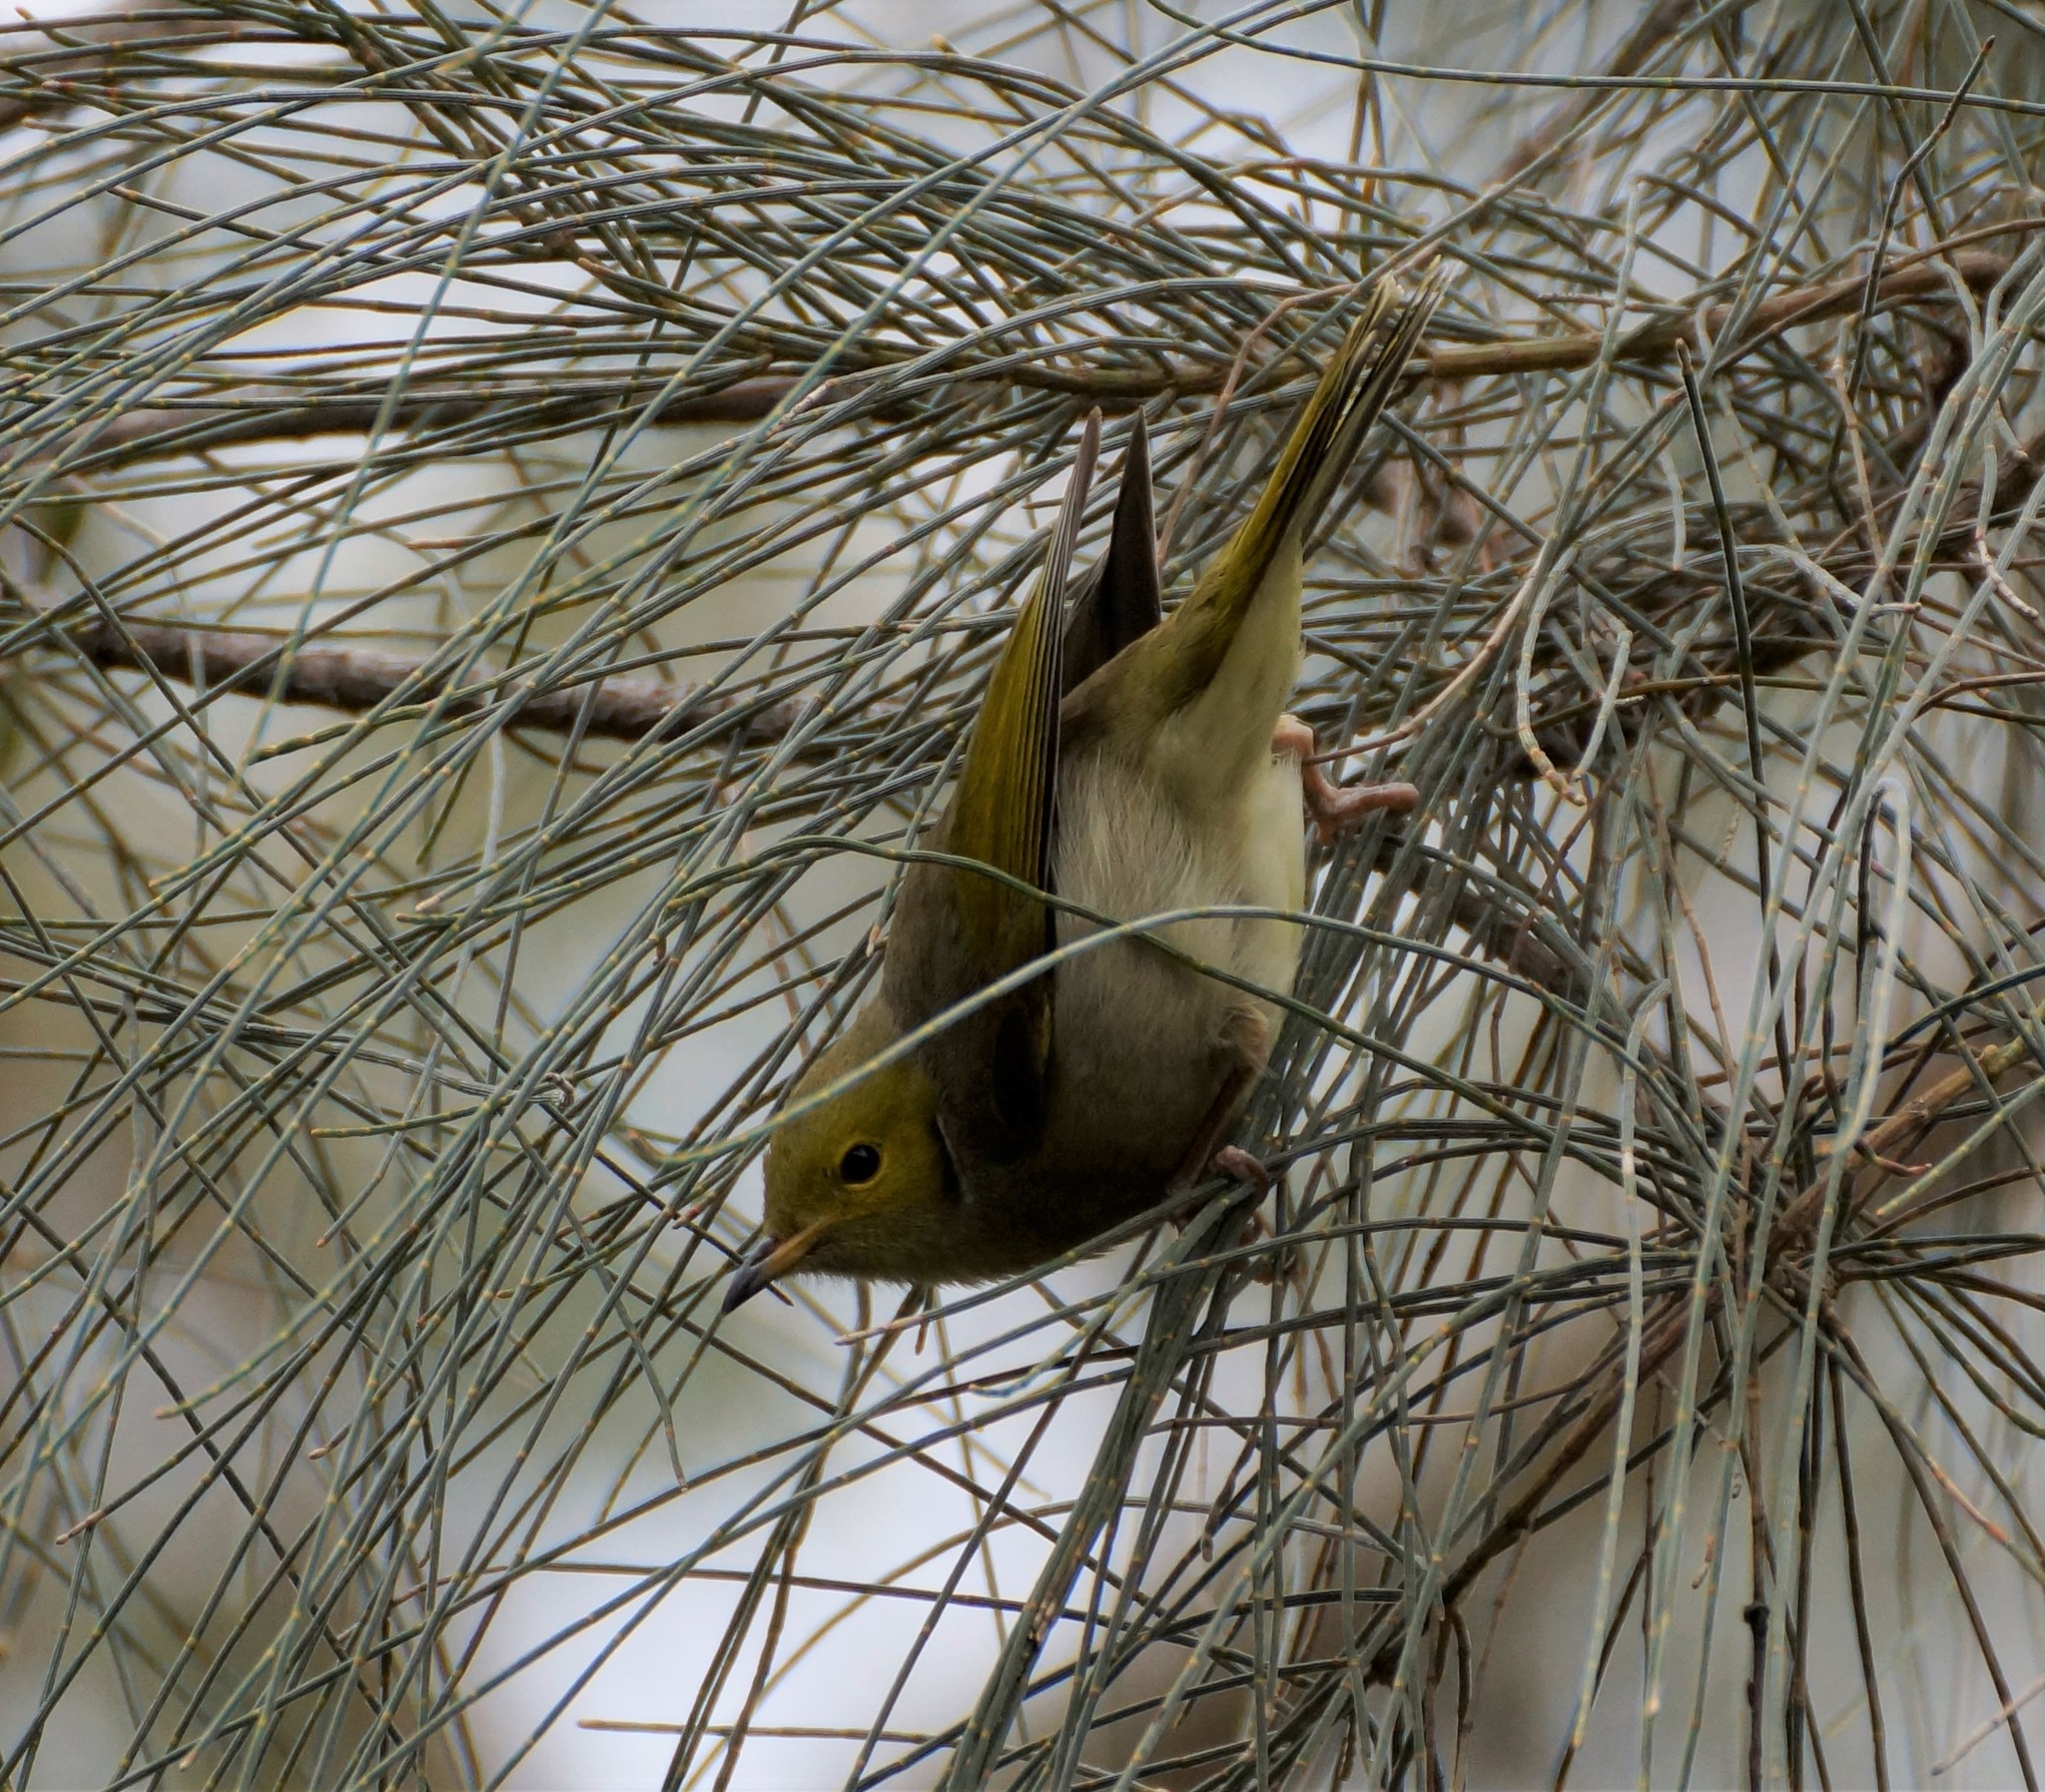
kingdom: Animalia
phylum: Chordata
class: Aves
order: Passeriformes
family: Meliphagidae
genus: Ptilotula
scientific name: Ptilotula penicillata
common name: White-plumed honeyeater
